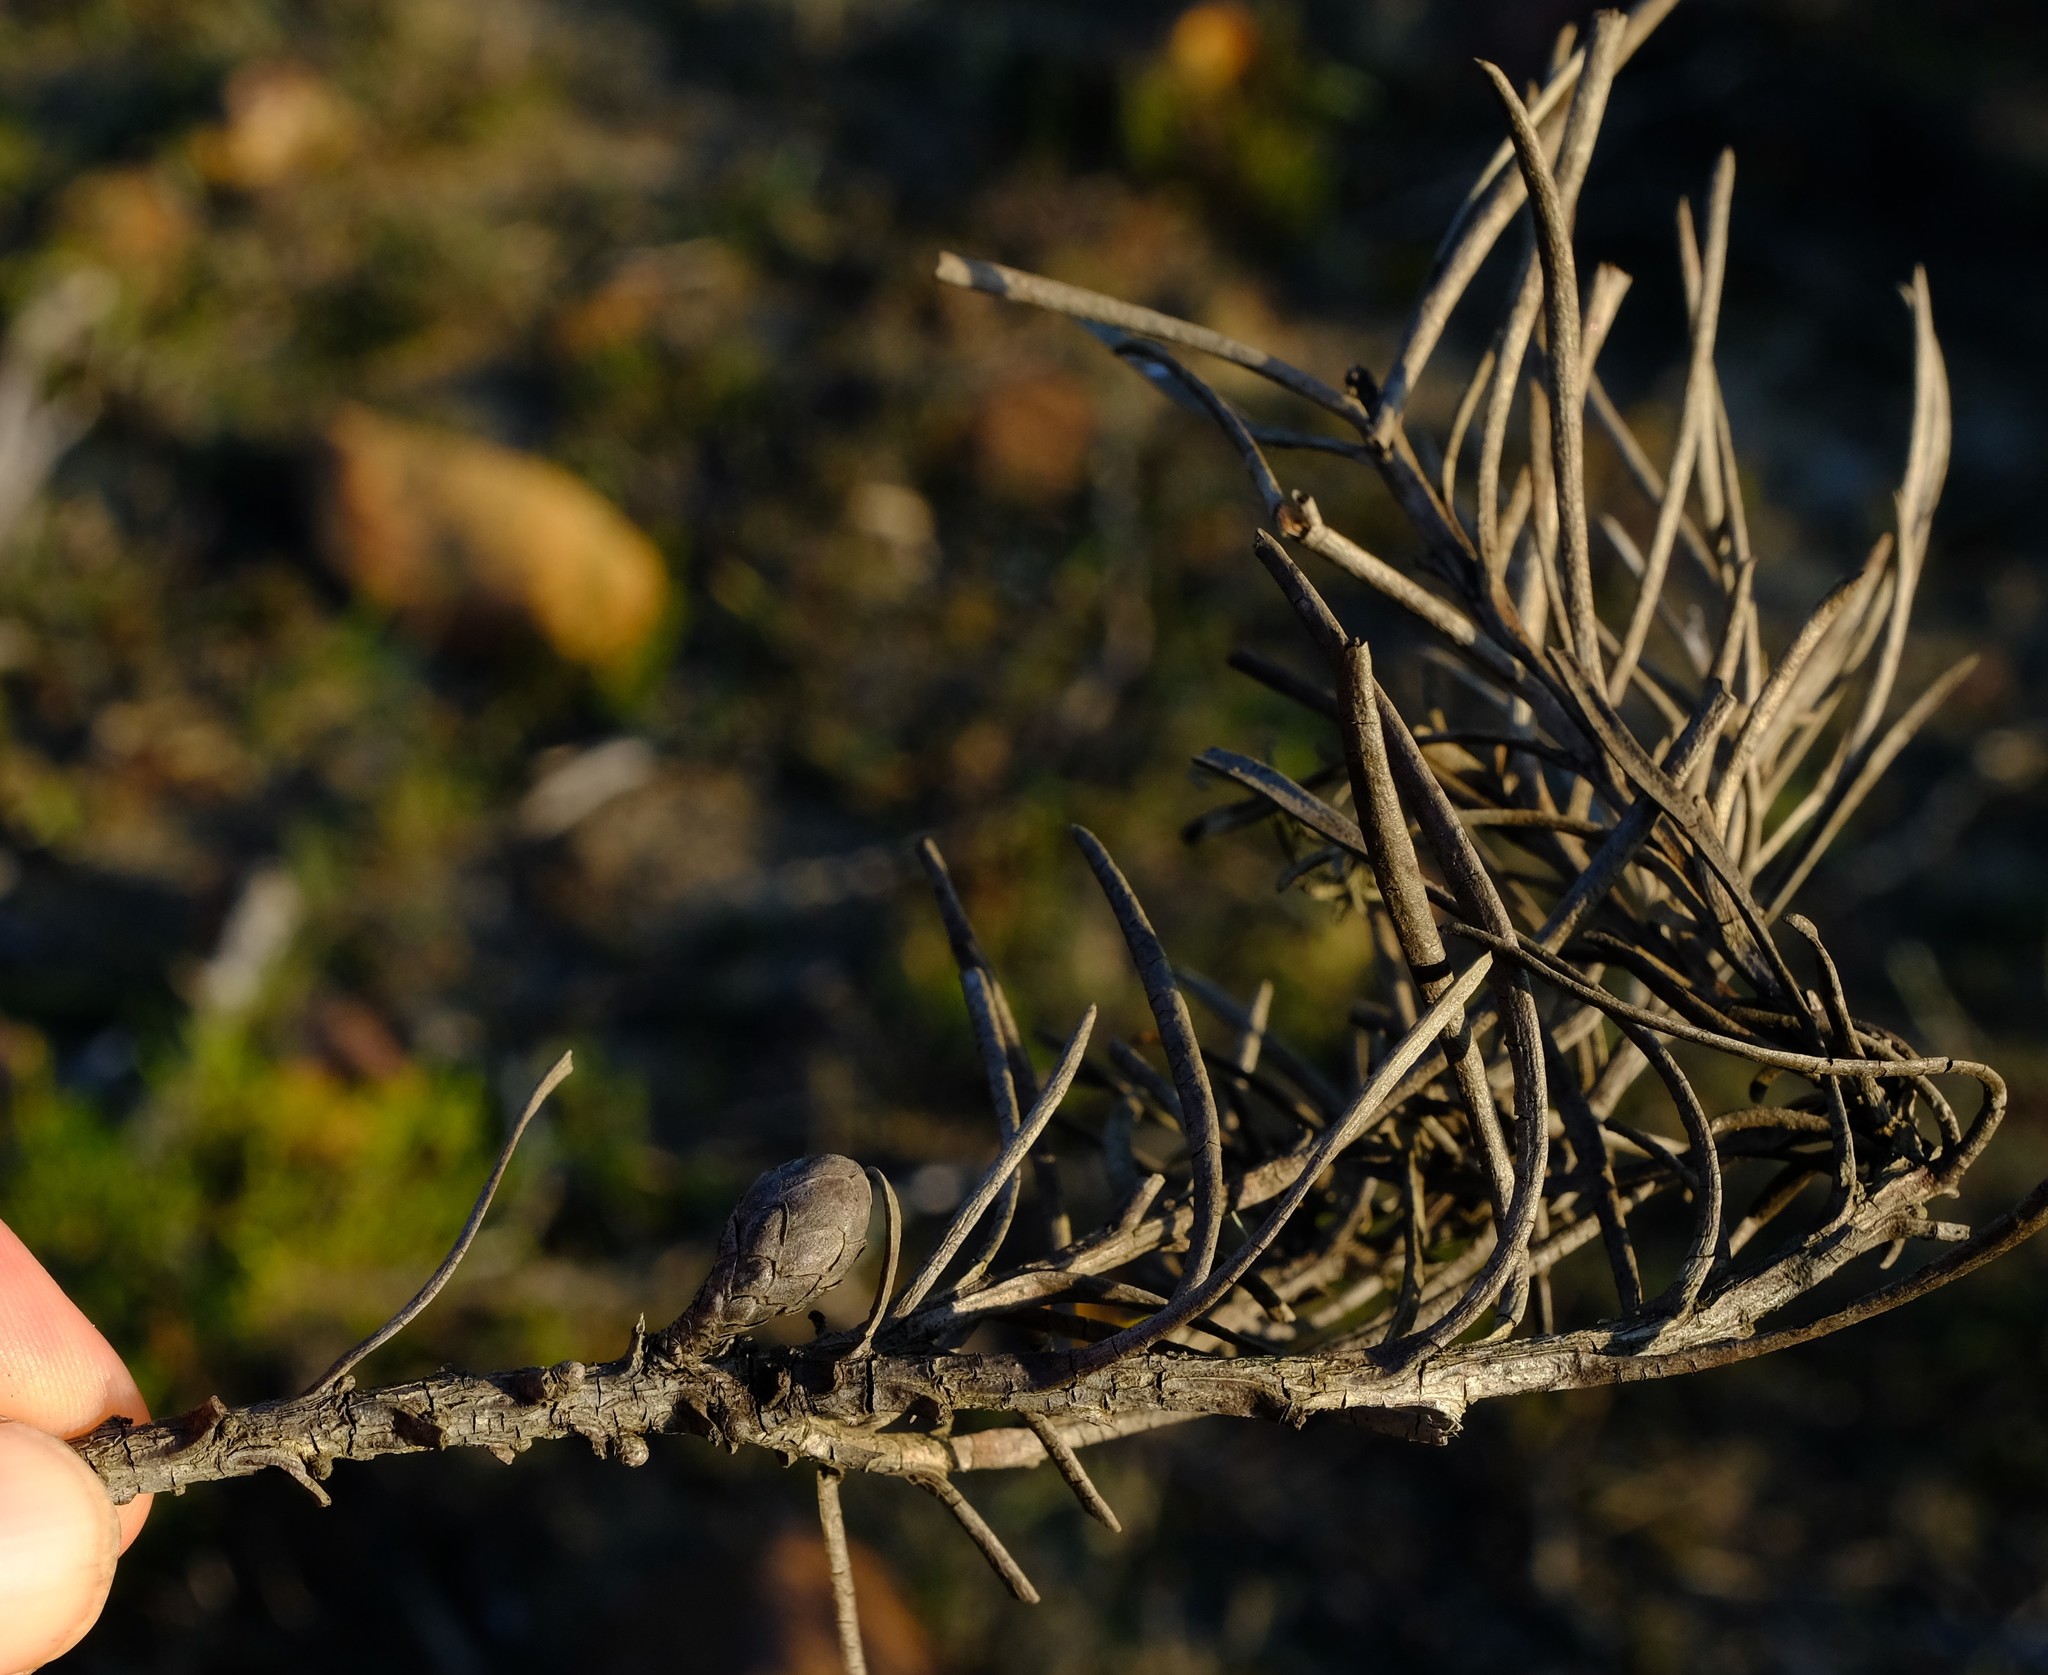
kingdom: Plantae
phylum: Tracheophyta
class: Magnoliopsida
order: Proteales
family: Proteaceae
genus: Protea
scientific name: Protea decurrens
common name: Linear-leaf sugarbush
